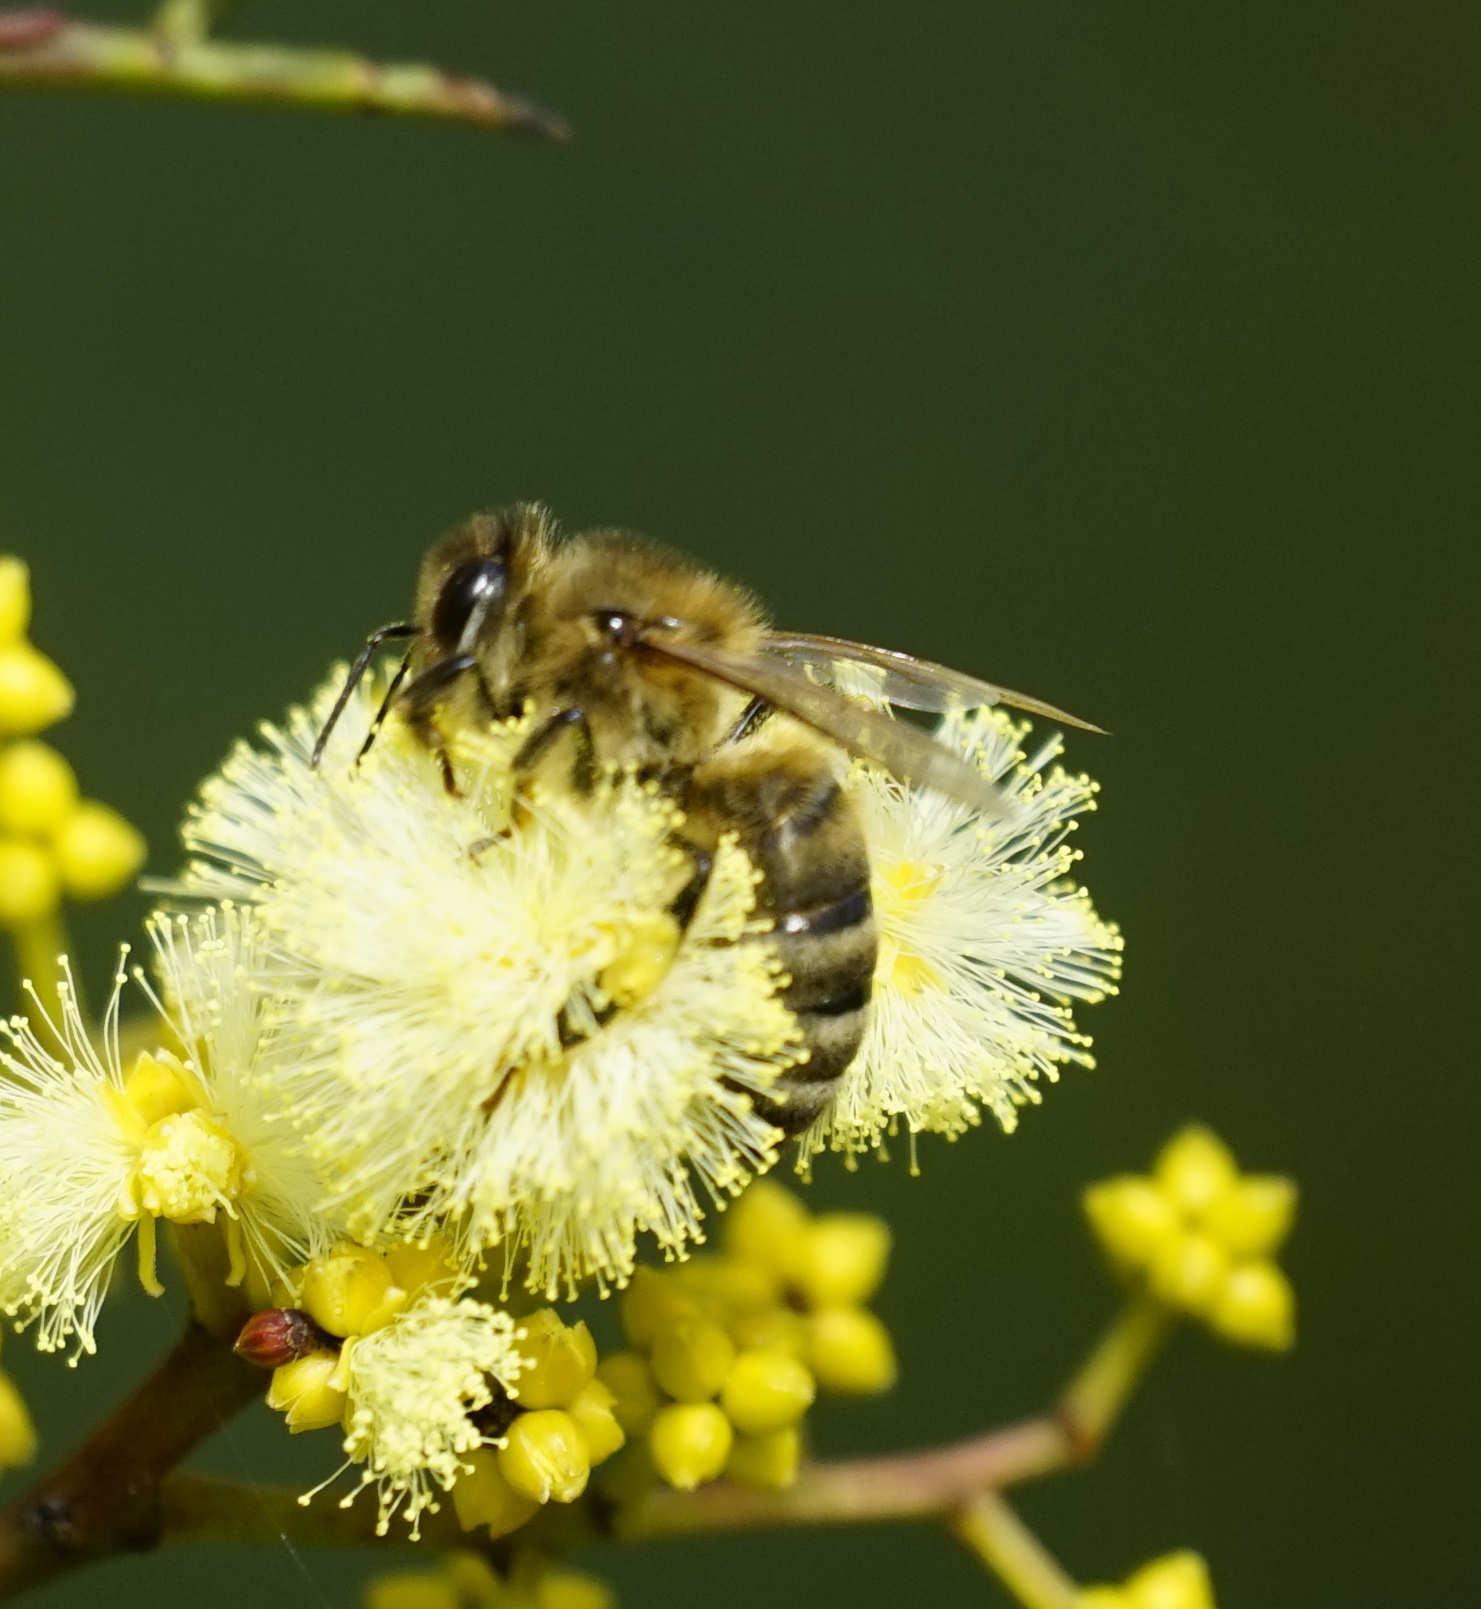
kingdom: Animalia
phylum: Arthropoda
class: Insecta
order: Hymenoptera
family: Apidae
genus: Apis
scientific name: Apis mellifera
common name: Honey bee
